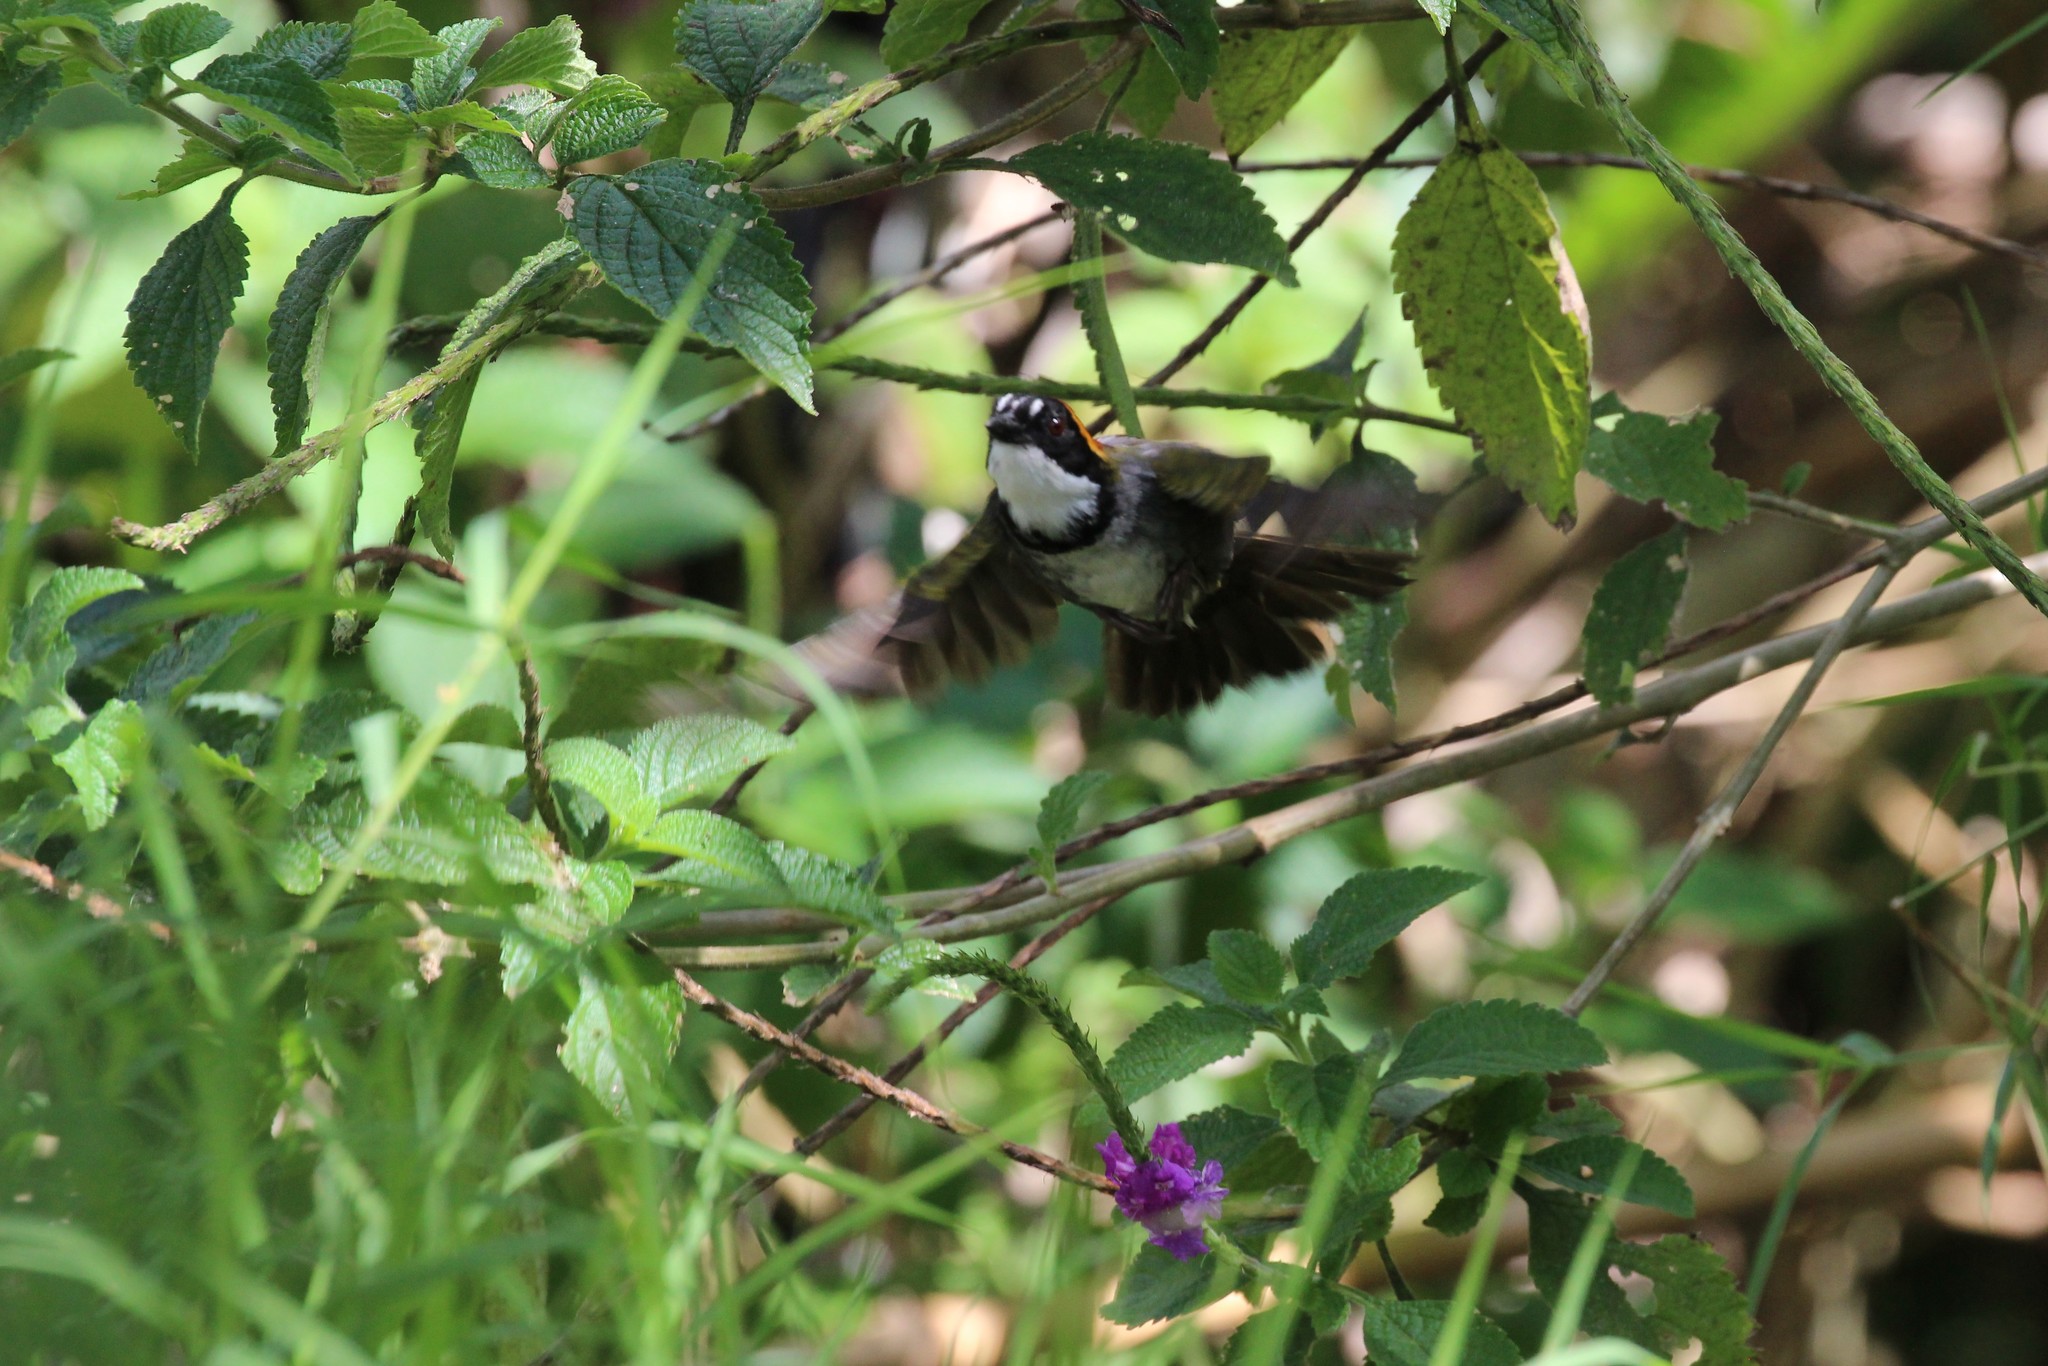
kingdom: Animalia
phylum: Chordata
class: Aves
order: Passeriformes
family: Passerellidae
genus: Arremon
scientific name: Arremon brunneinucha
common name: Chestnut-capped brushfinch
